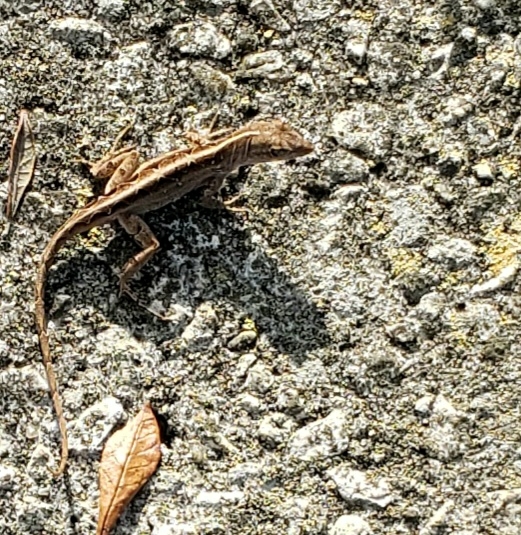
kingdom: Animalia
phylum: Chordata
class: Squamata
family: Dactyloidae
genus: Anolis
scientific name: Anolis sagrei
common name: Brown anole
